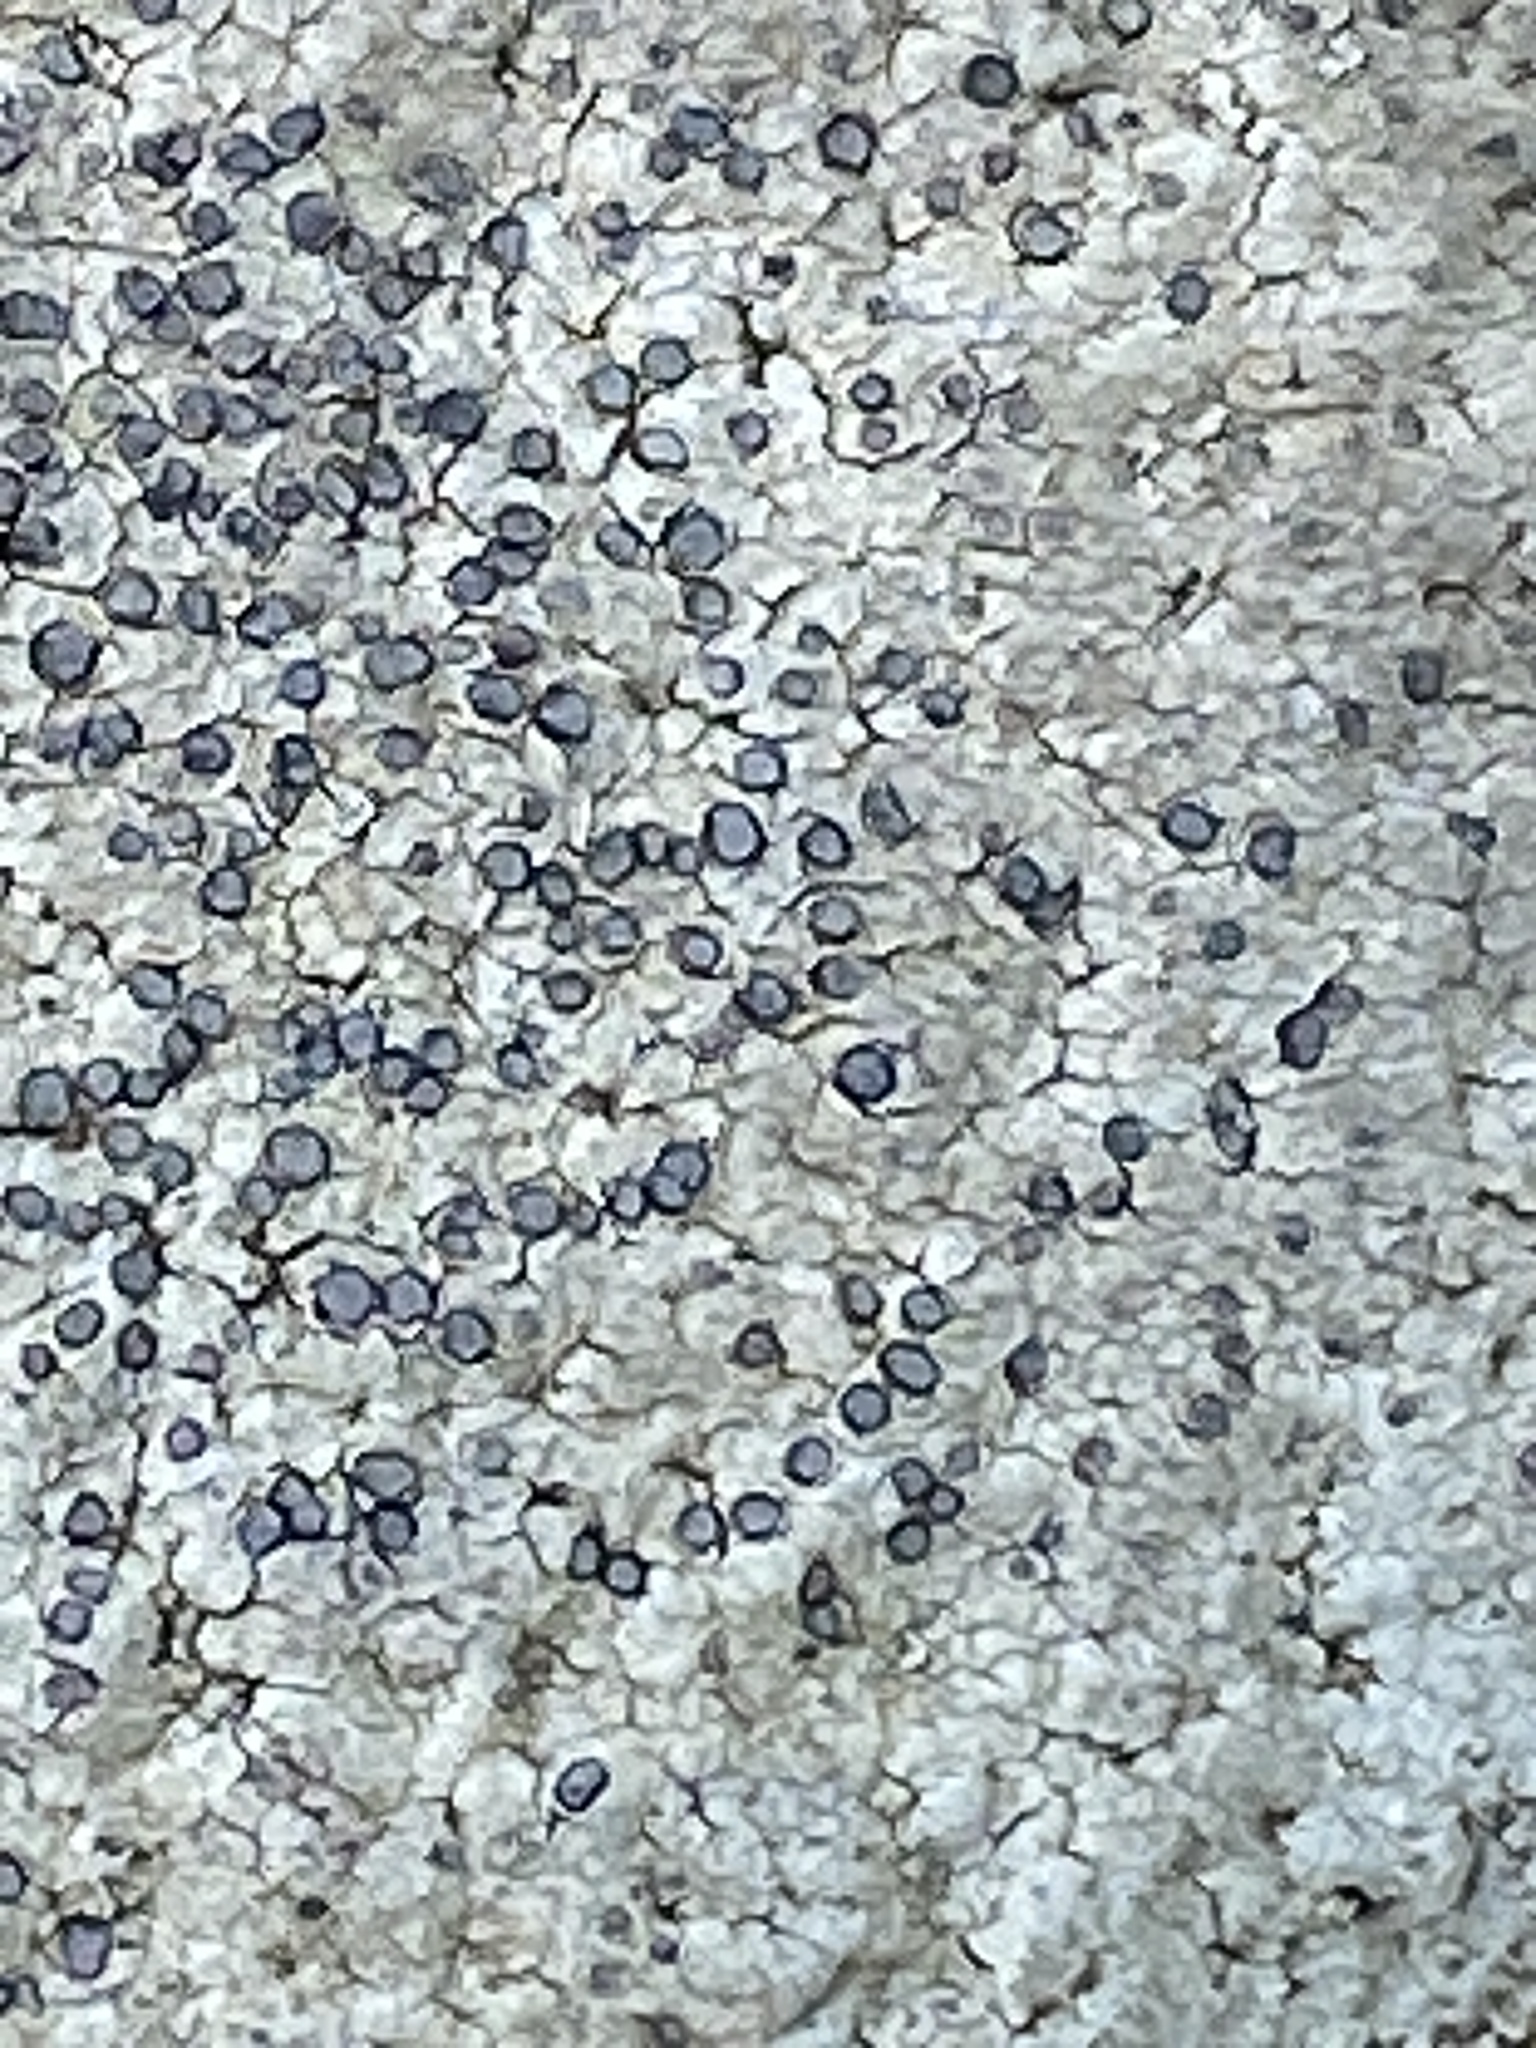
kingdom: Fungi
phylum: Ascomycota
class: Lecanoromycetes
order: Lecideales
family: Lecideaceae
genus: Porpidia
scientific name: Porpidia albocaerulescens
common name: Smokey-eyed boulder lichen
